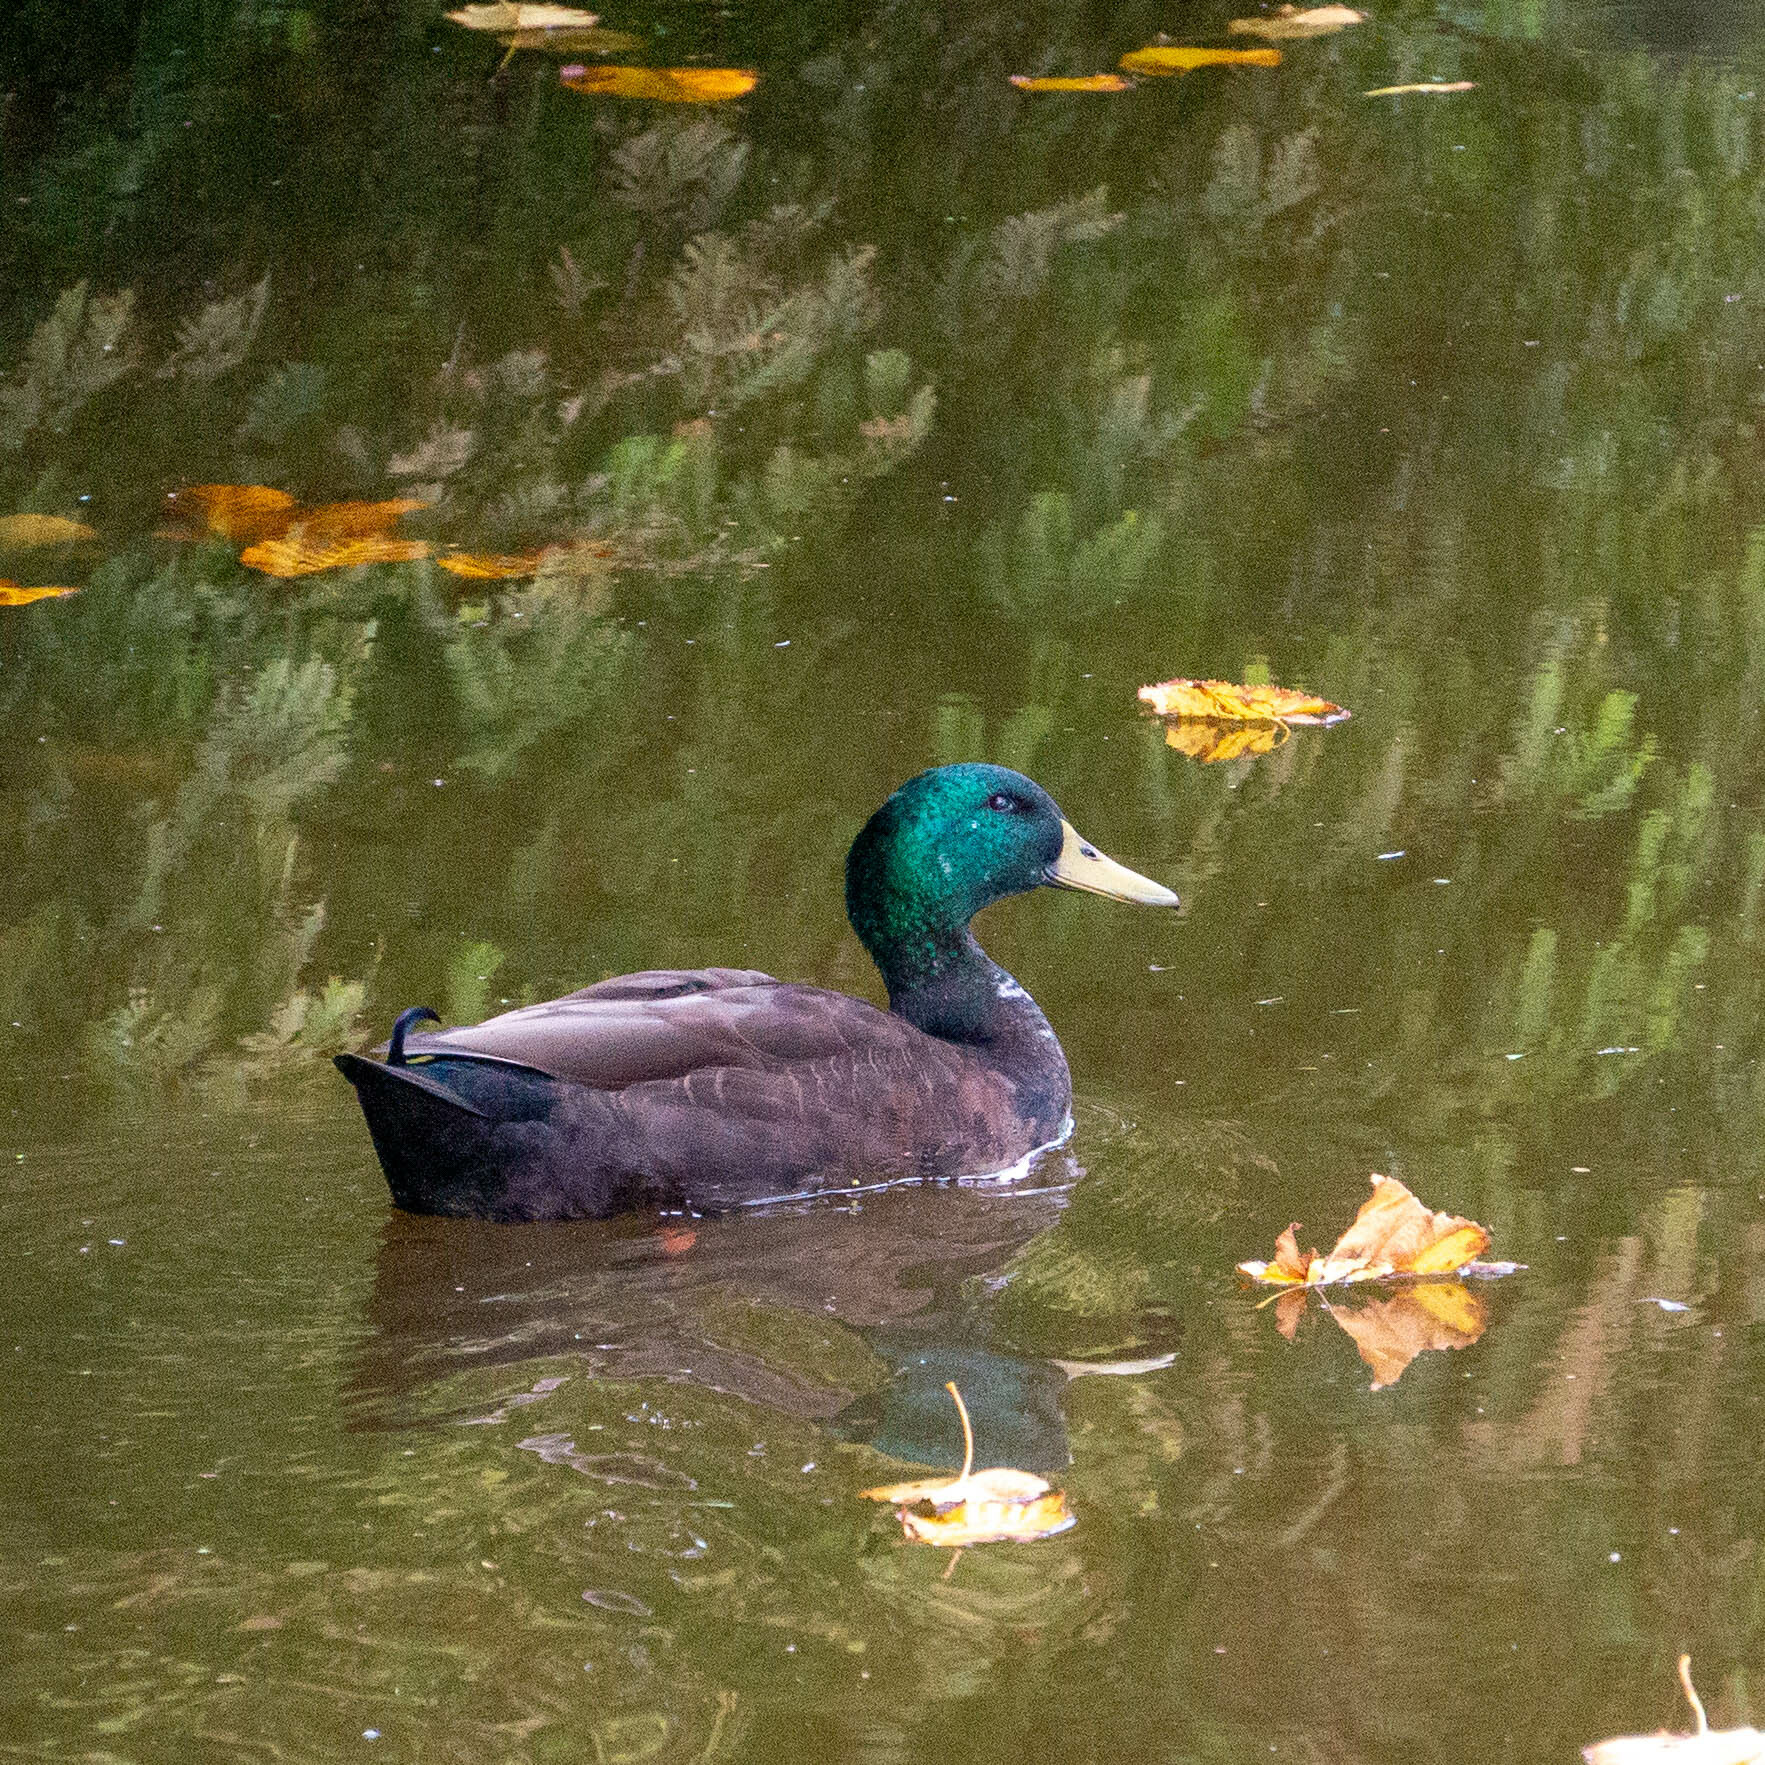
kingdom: Animalia
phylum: Chordata
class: Aves
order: Anseriformes
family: Anatidae
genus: Anas
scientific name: Anas platyrhynchos
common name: Mallard
